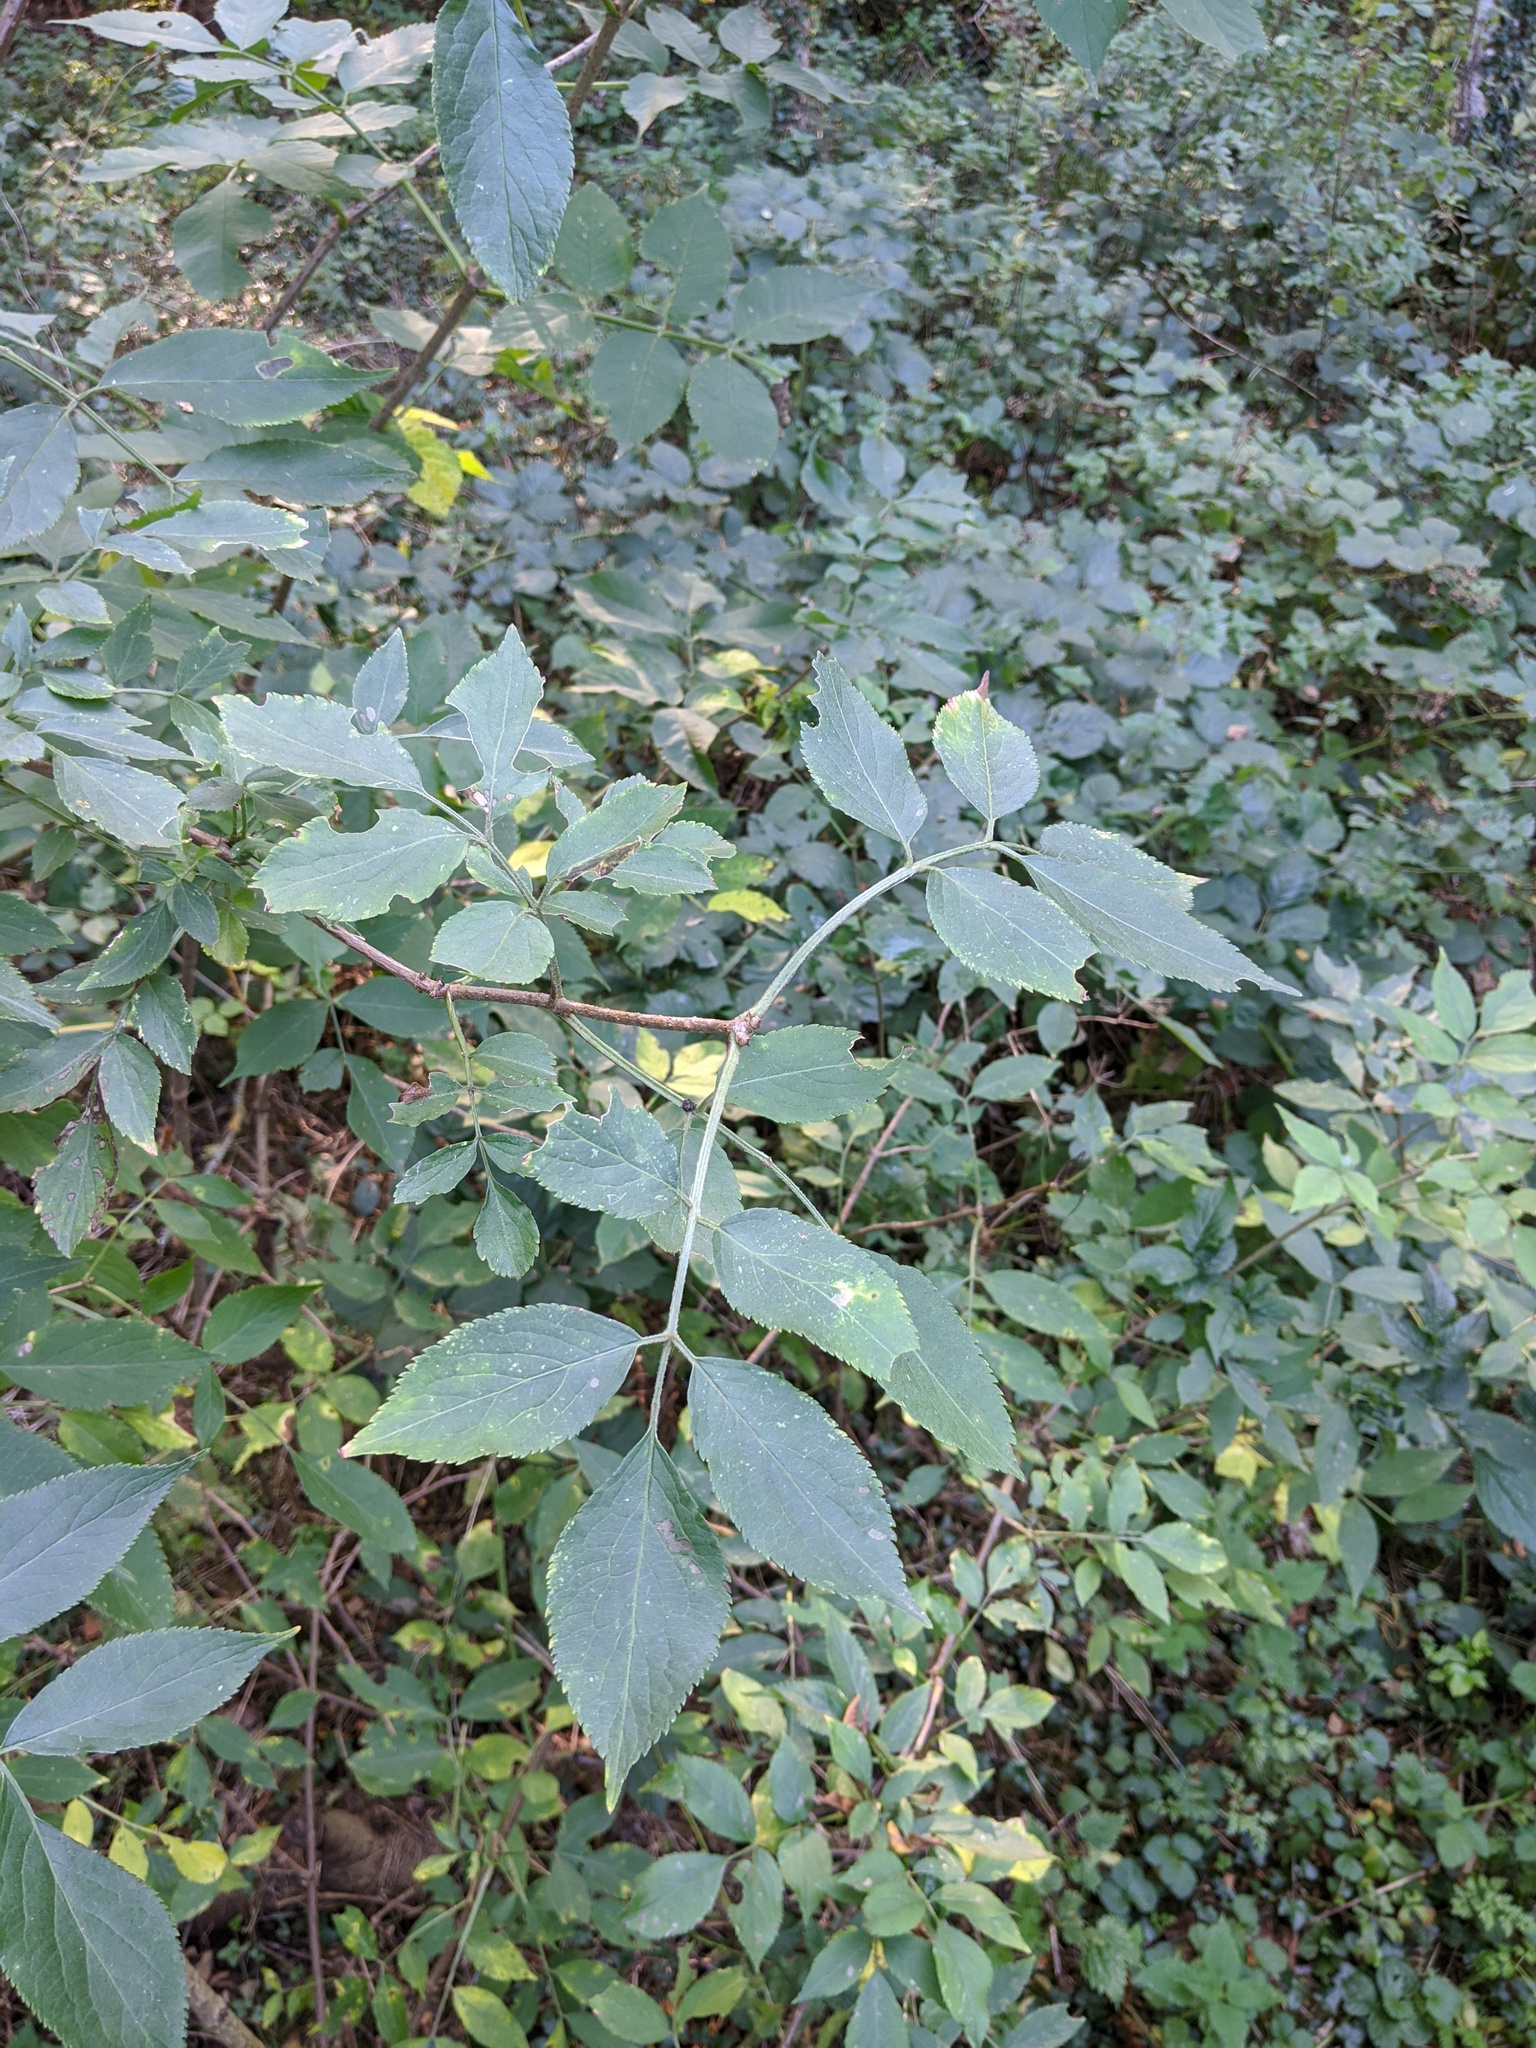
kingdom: Plantae
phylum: Tracheophyta
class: Magnoliopsida
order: Dipsacales
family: Viburnaceae
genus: Sambucus
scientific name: Sambucus nigra
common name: Elder
